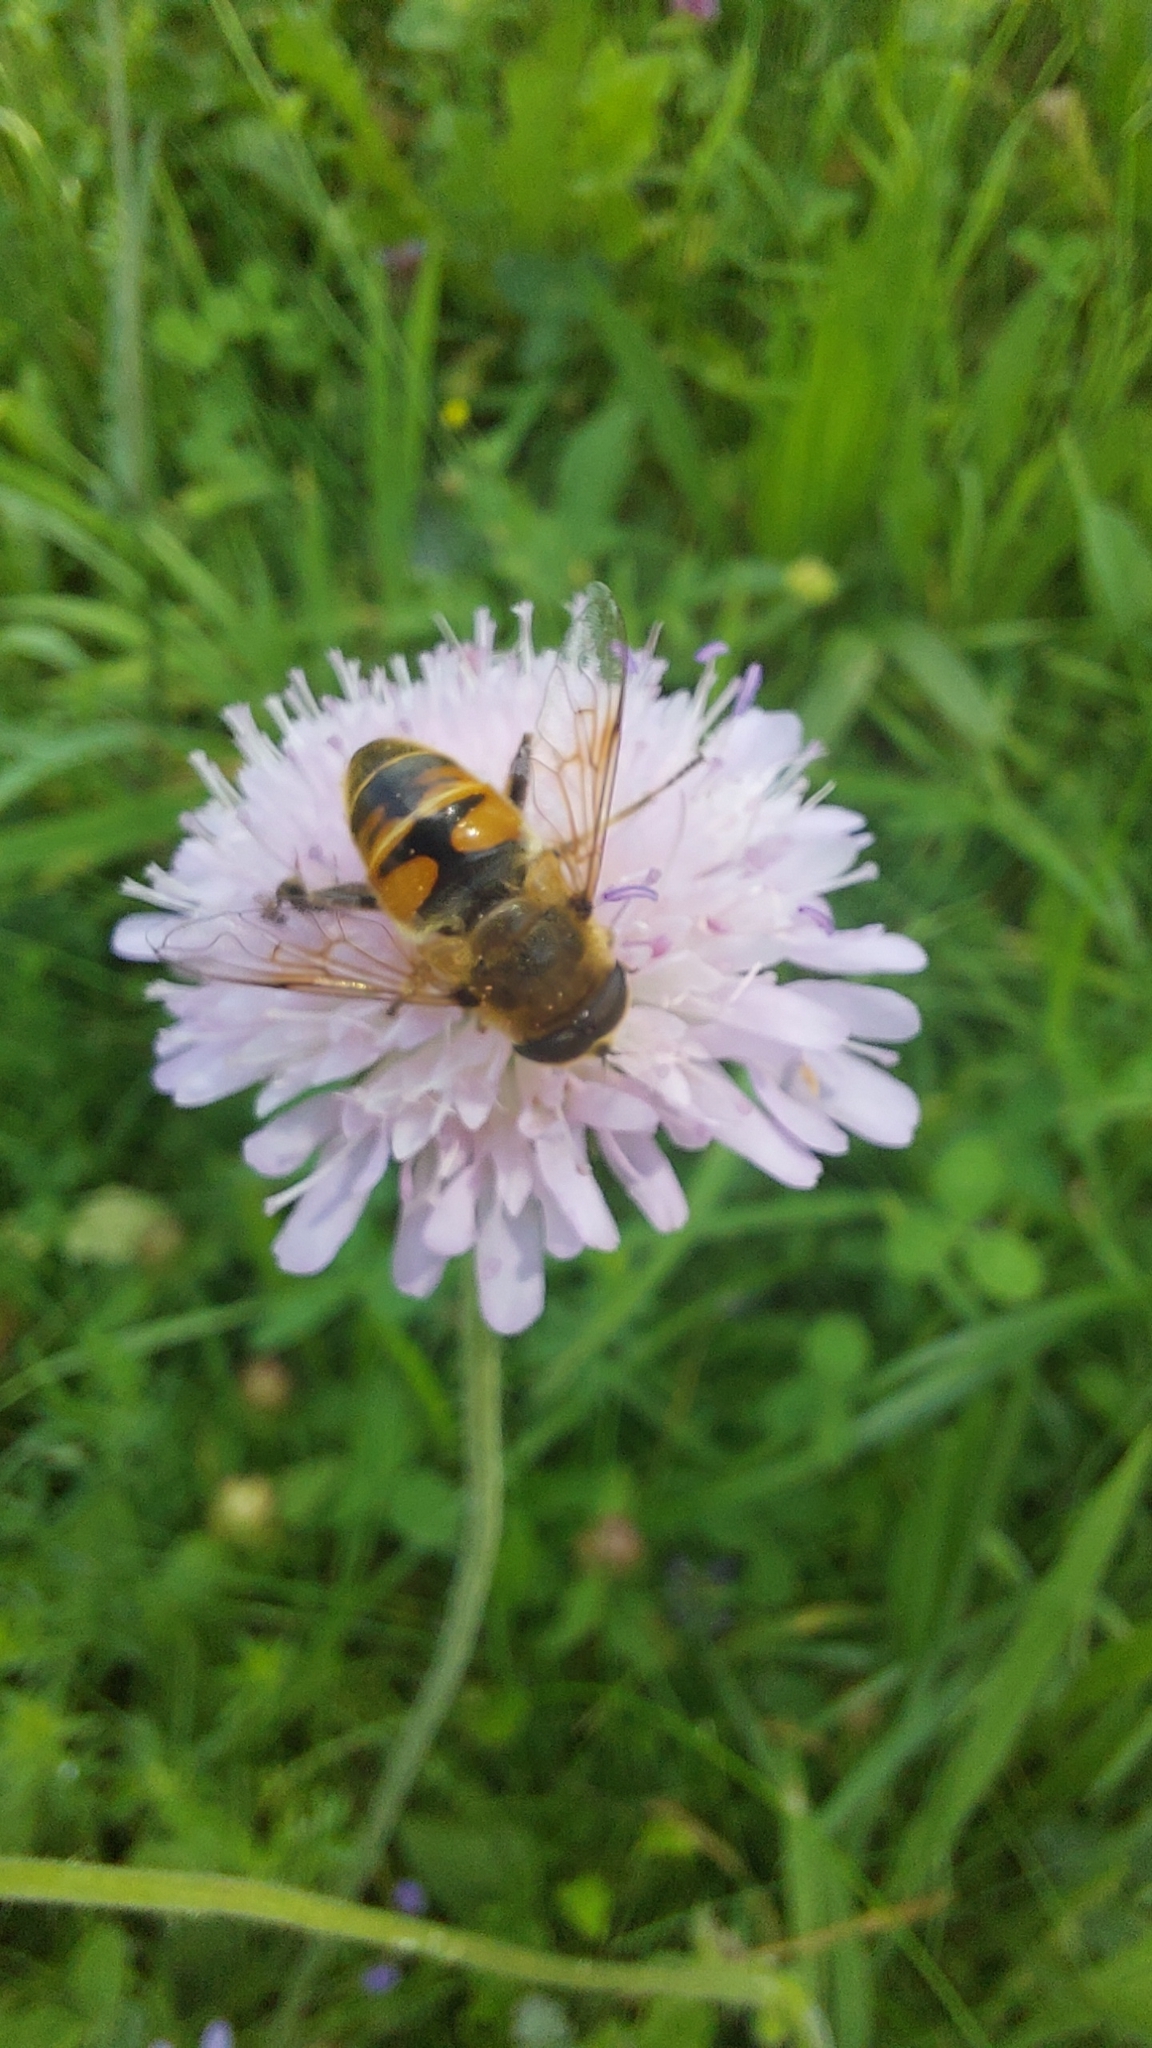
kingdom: Animalia
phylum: Arthropoda
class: Insecta
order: Diptera
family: Syrphidae
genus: Eristalis
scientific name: Eristalis tenax
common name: Drone fly
